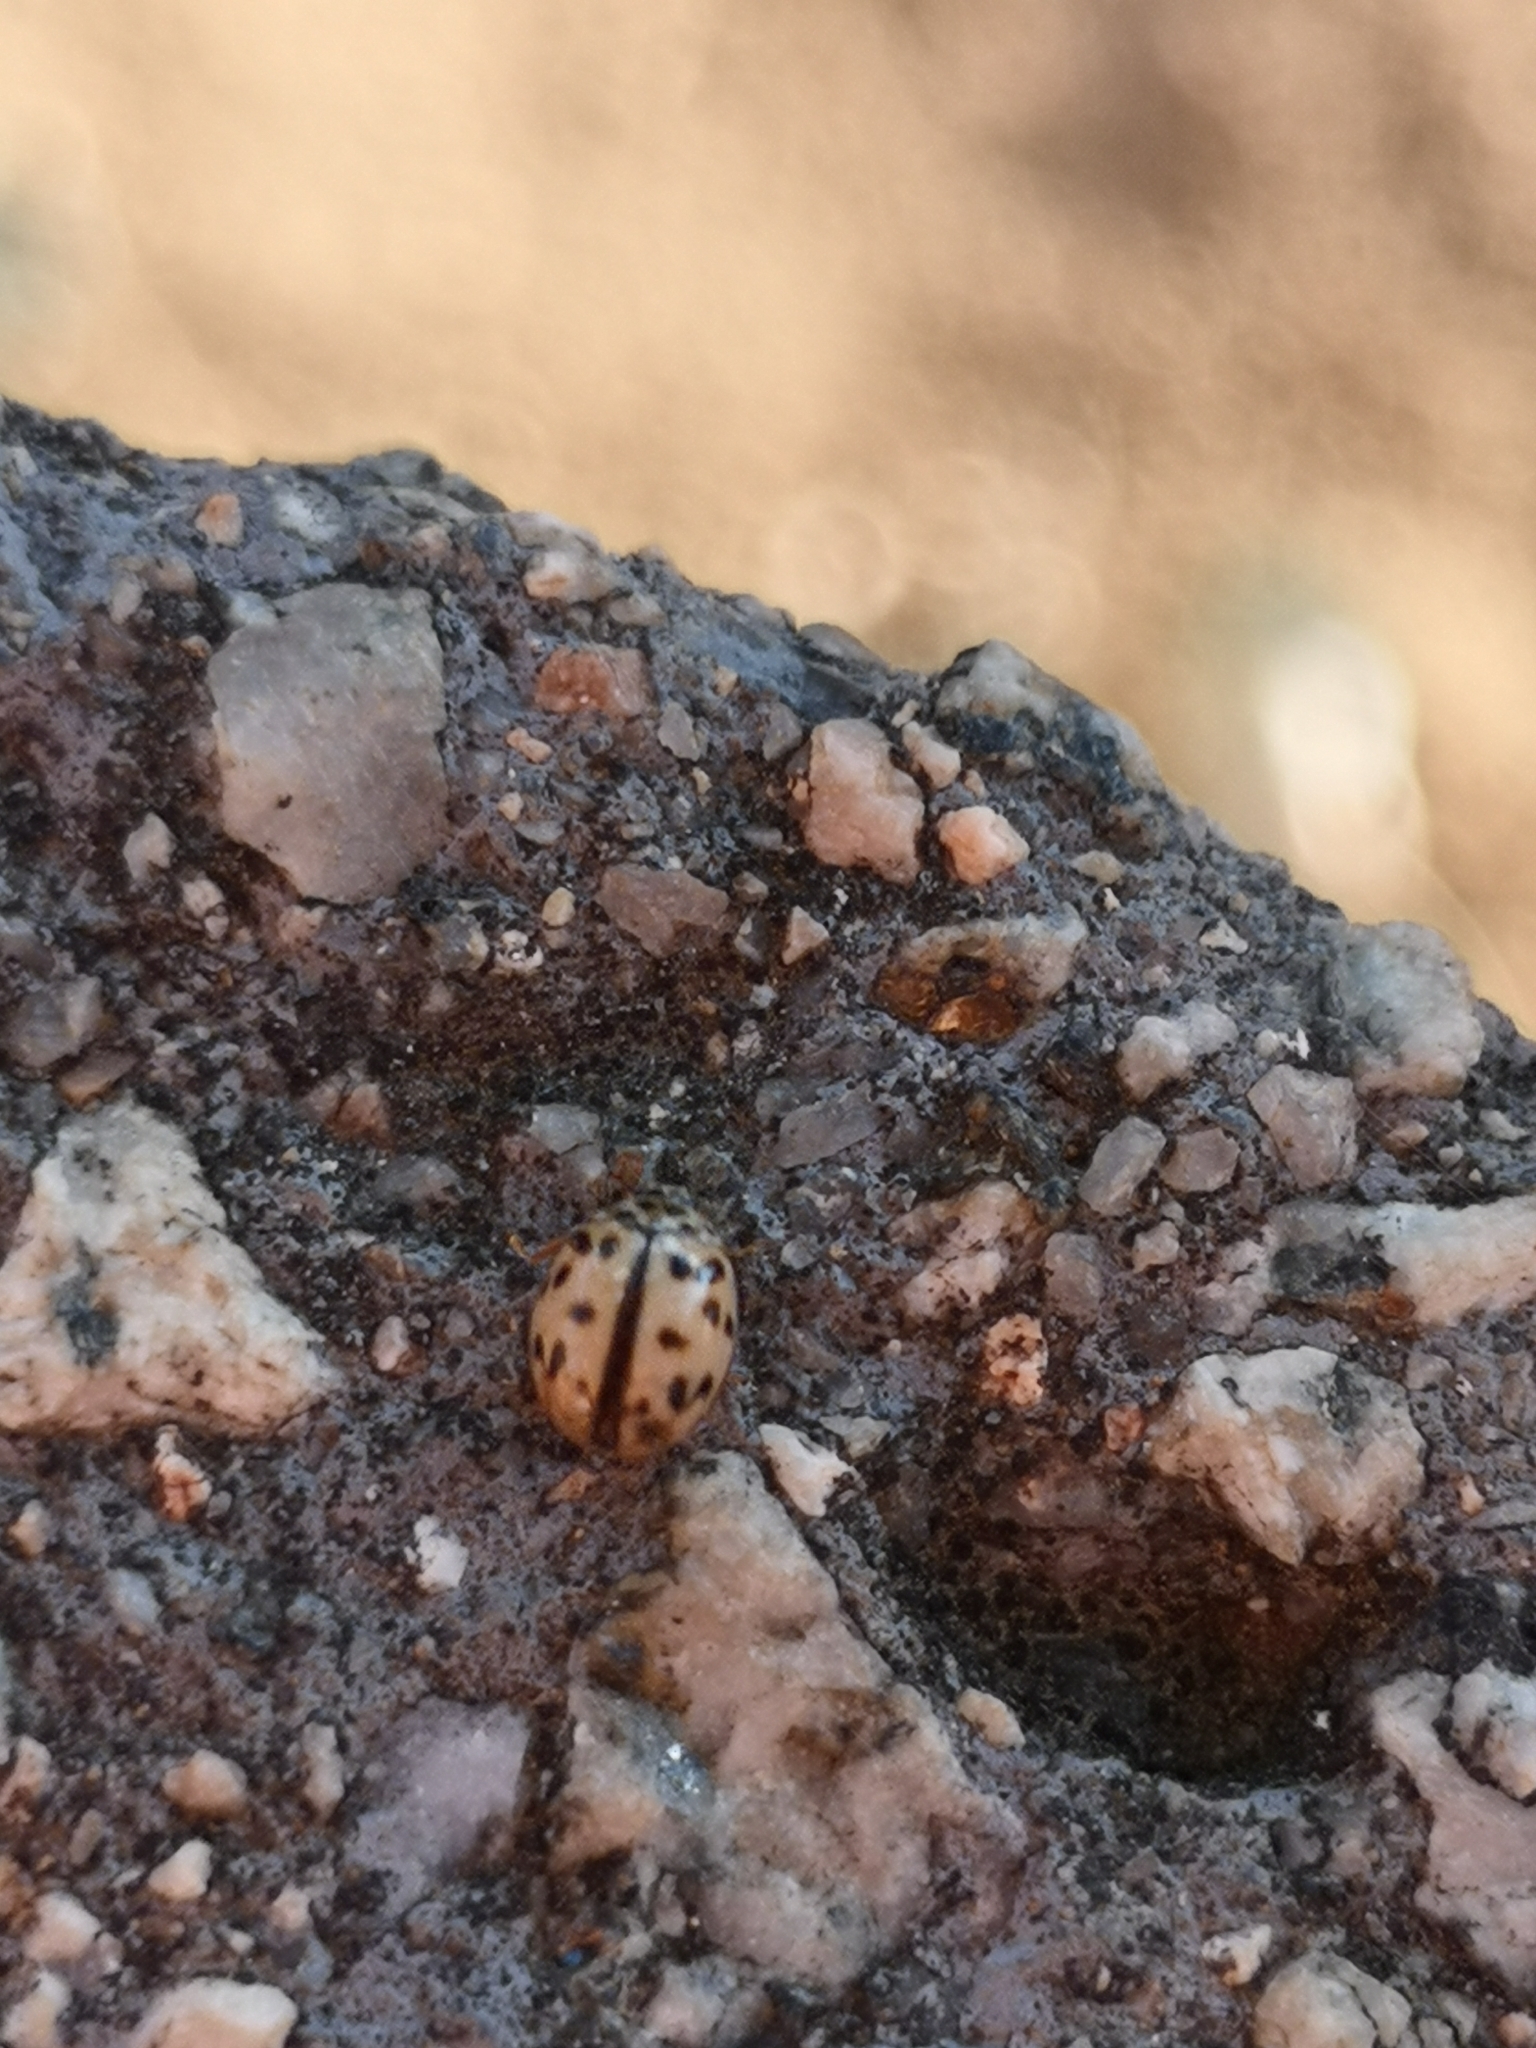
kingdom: Animalia
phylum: Arthropoda
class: Insecta
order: Coleoptera
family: Coccinellidae
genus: Oenopia
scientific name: Oenopia conglobata
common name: Ladybird beetle
